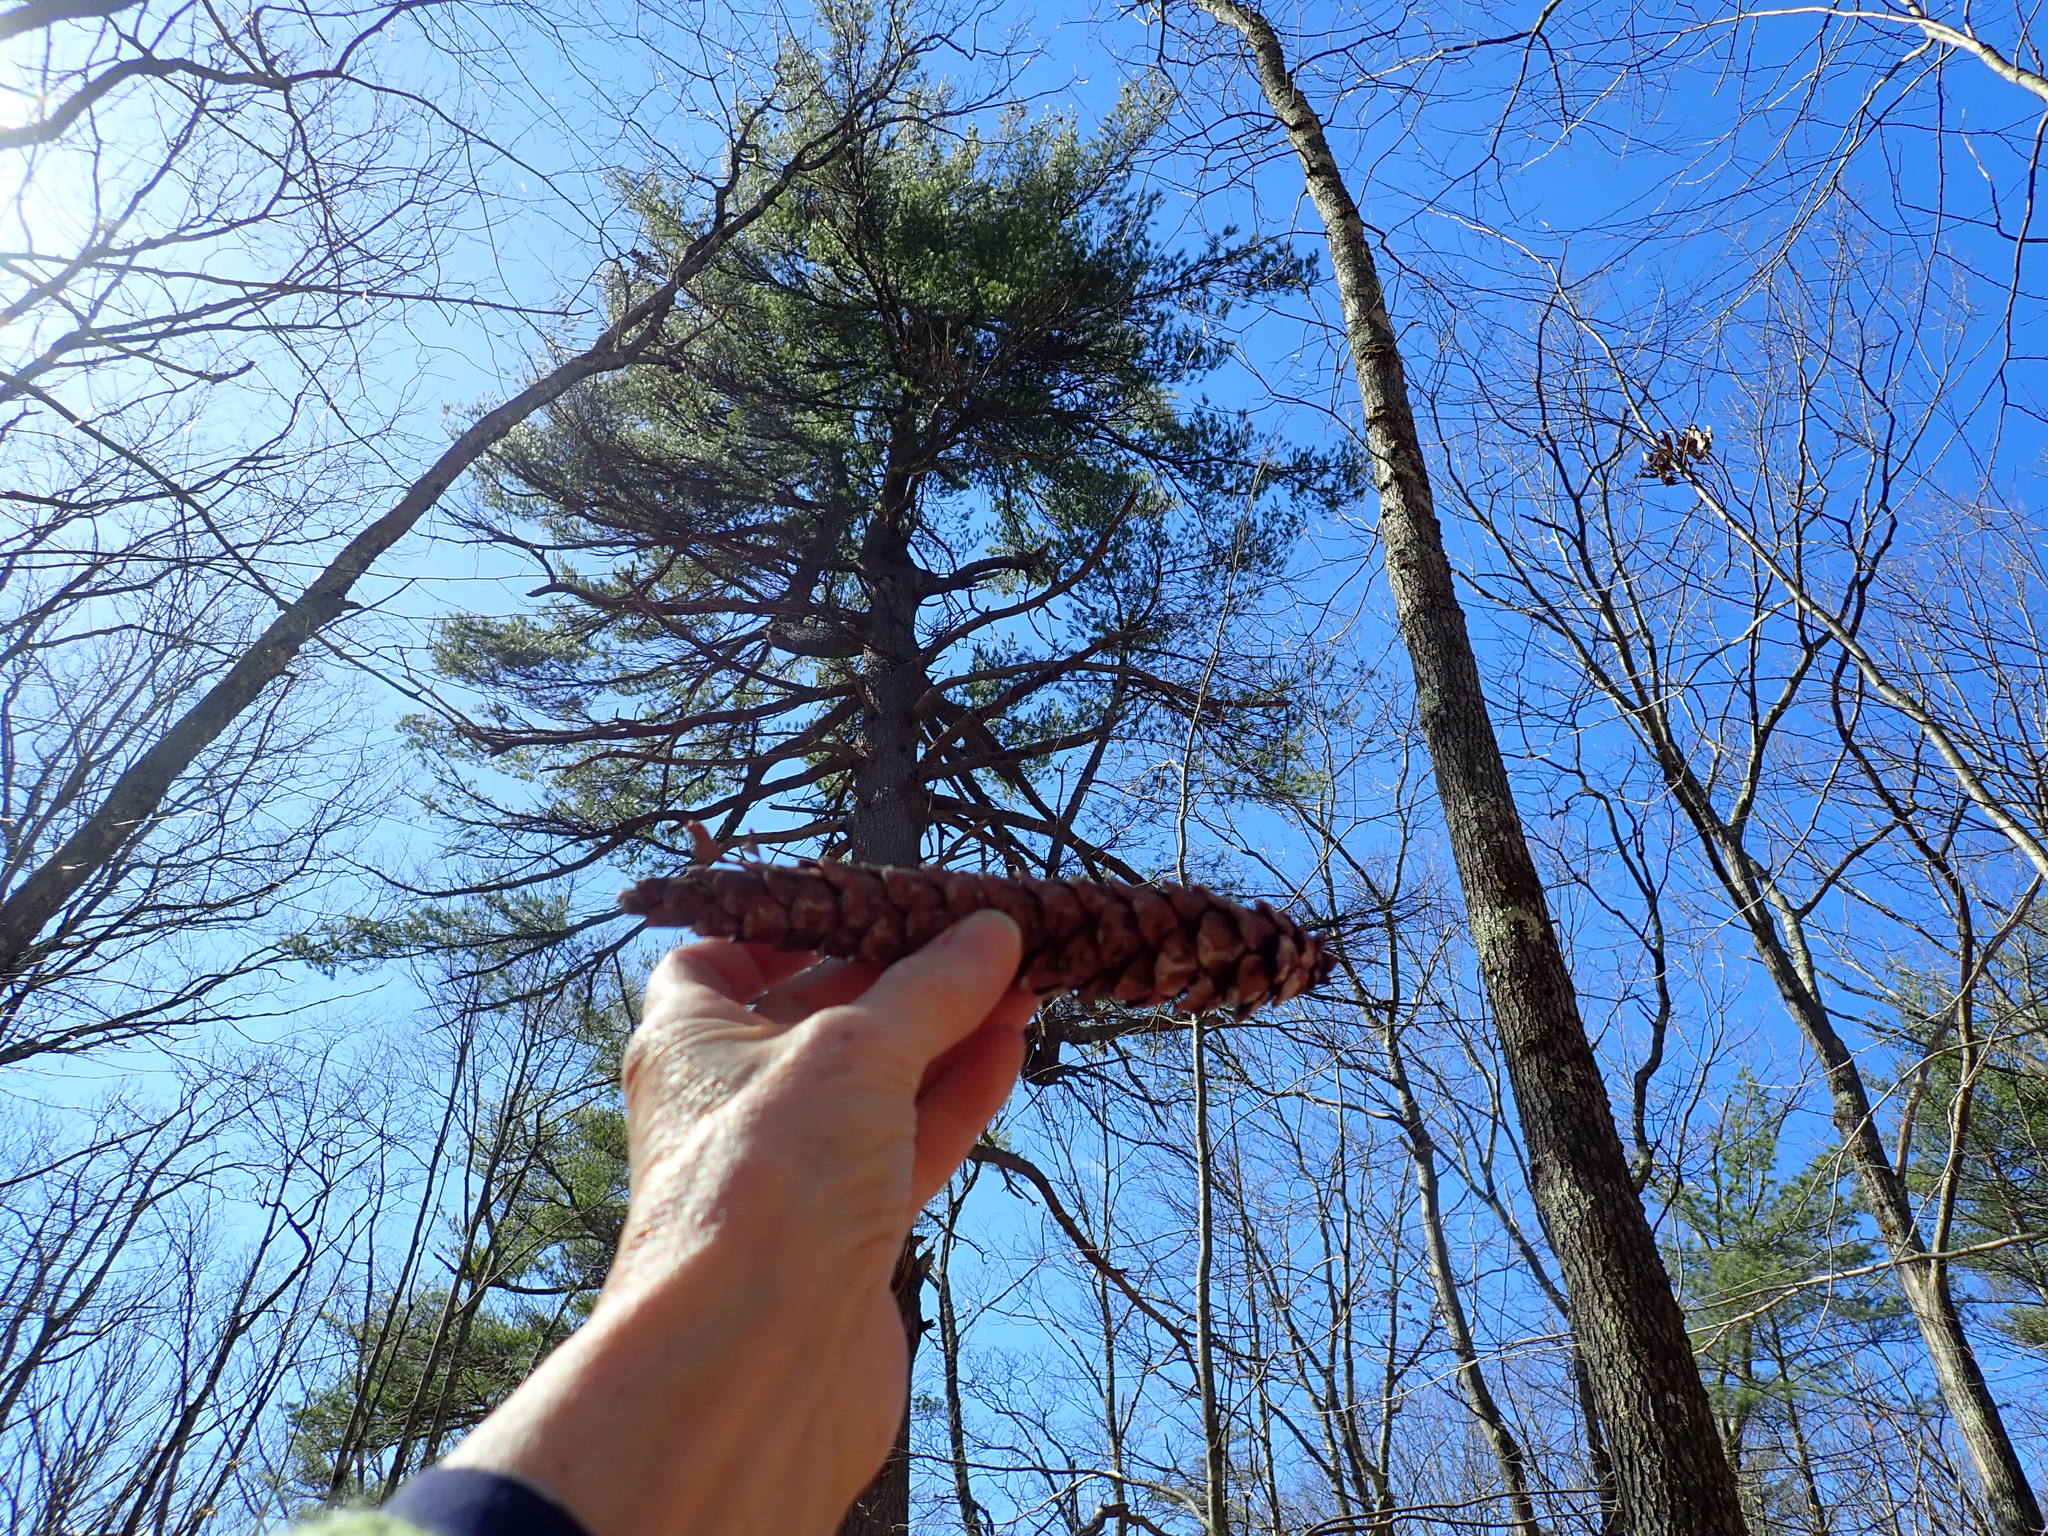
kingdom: Plantae
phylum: Tracheophyta
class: Pinopsida
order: Pinales
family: Pinaceae
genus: Pinus
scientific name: Pinus strobus
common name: Weymouth pine
